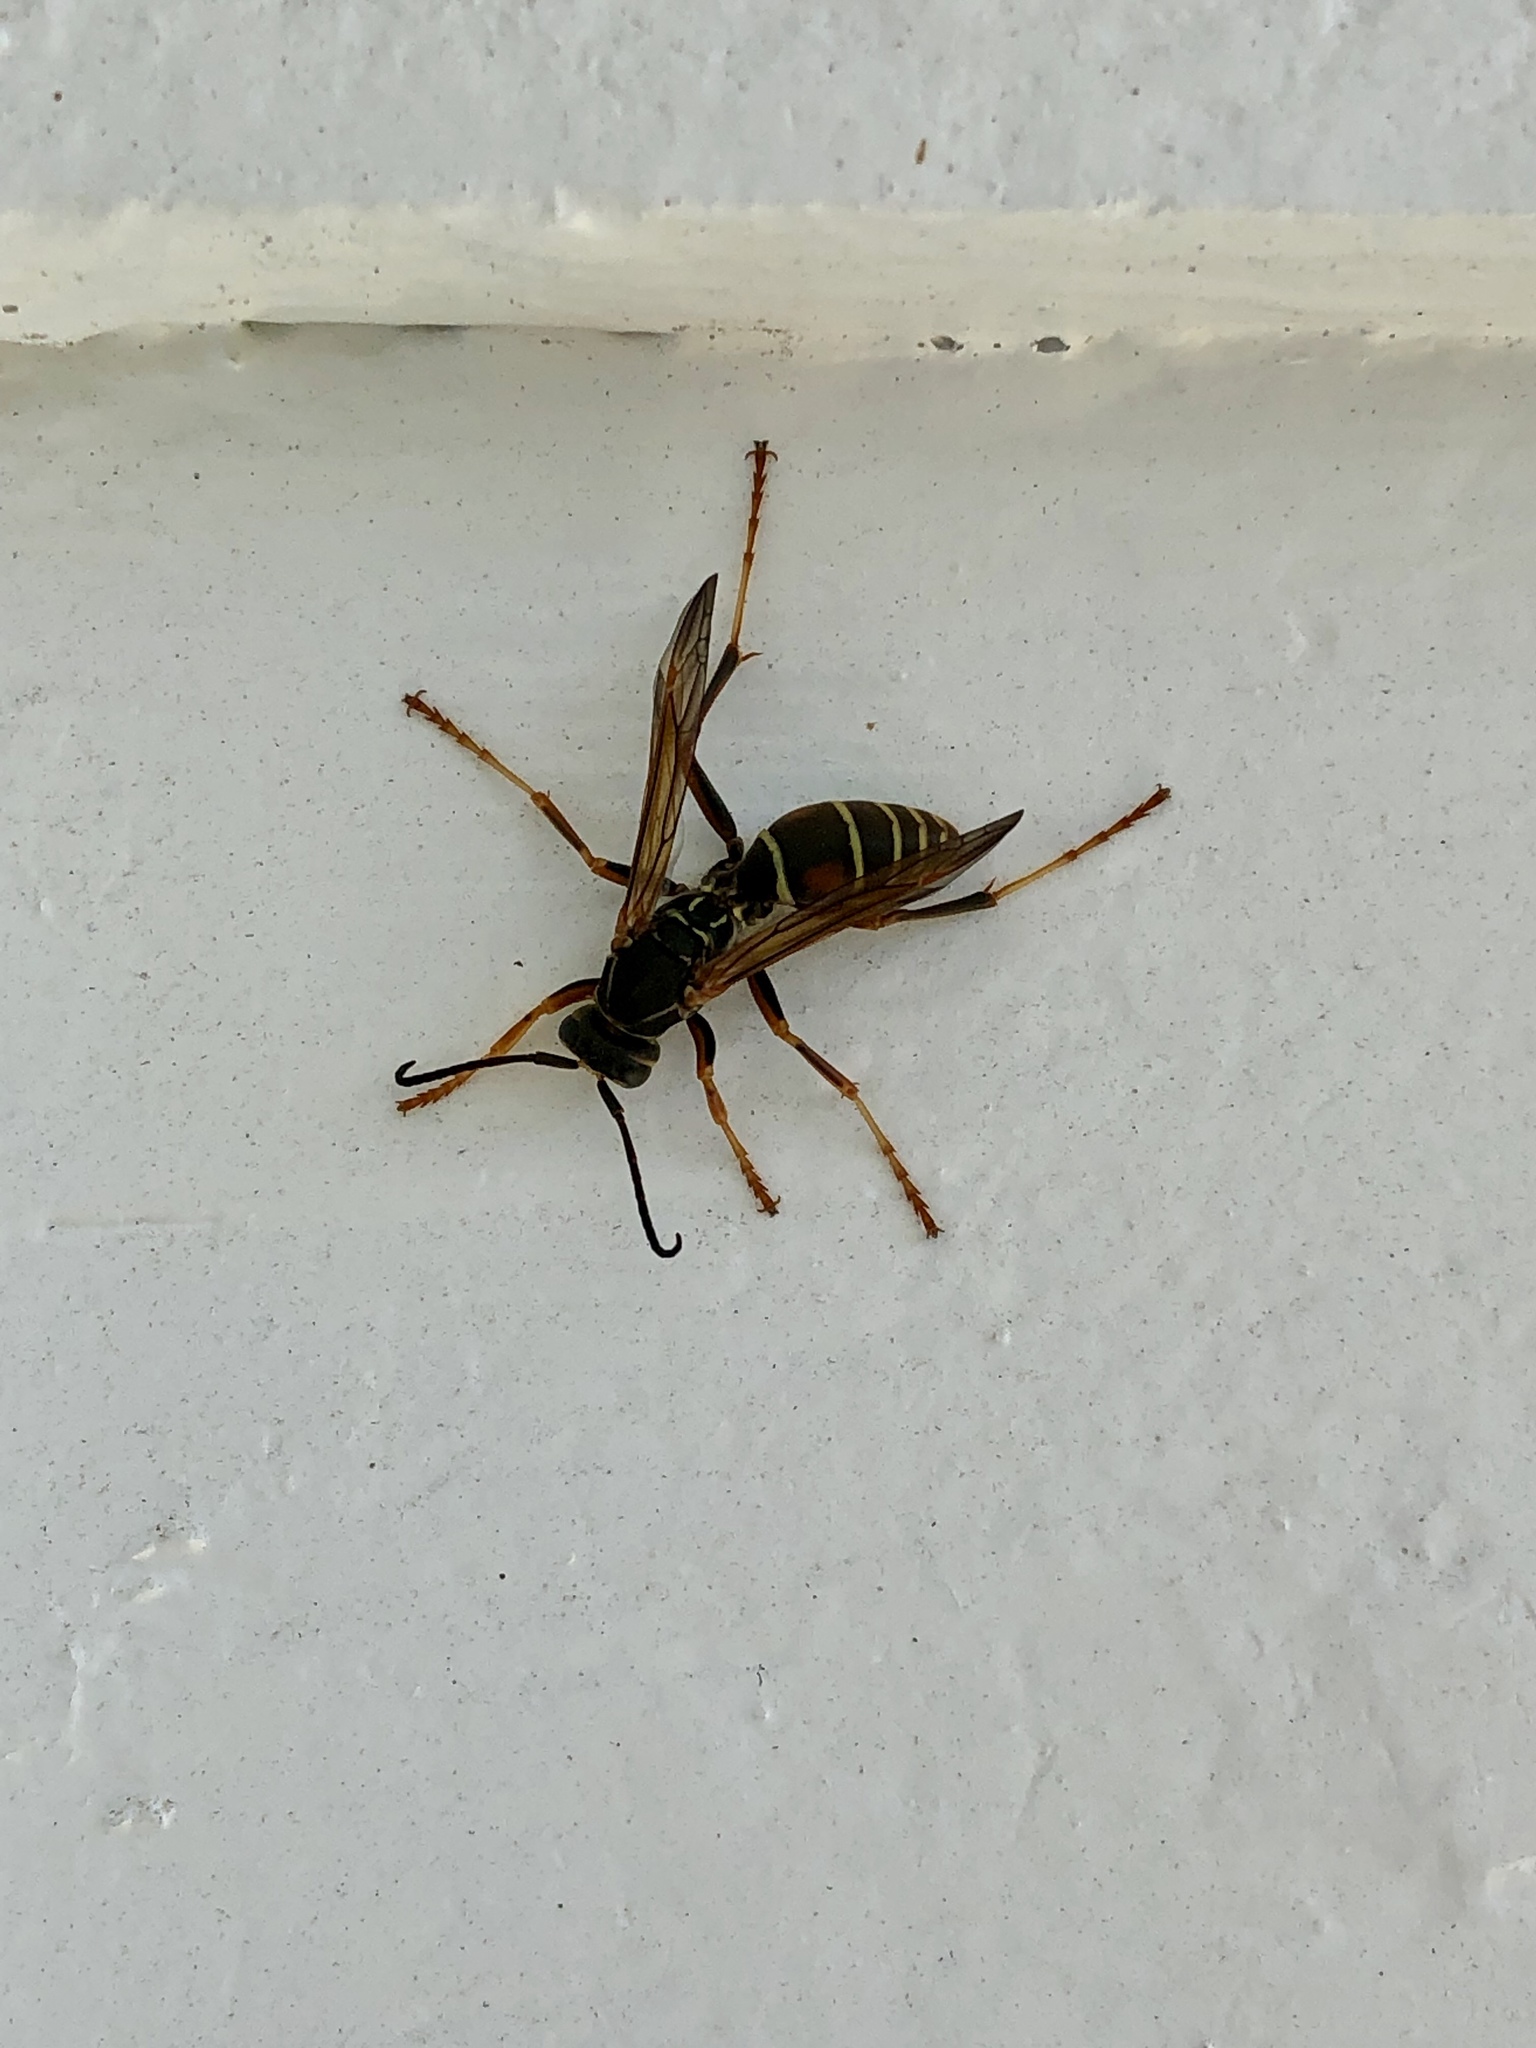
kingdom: Animalia
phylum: Arthropoda
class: Insecta
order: Hymenoptera
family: Eumenidae
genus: Polistes
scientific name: Polistes fuscatus
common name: Dark paper wasp
